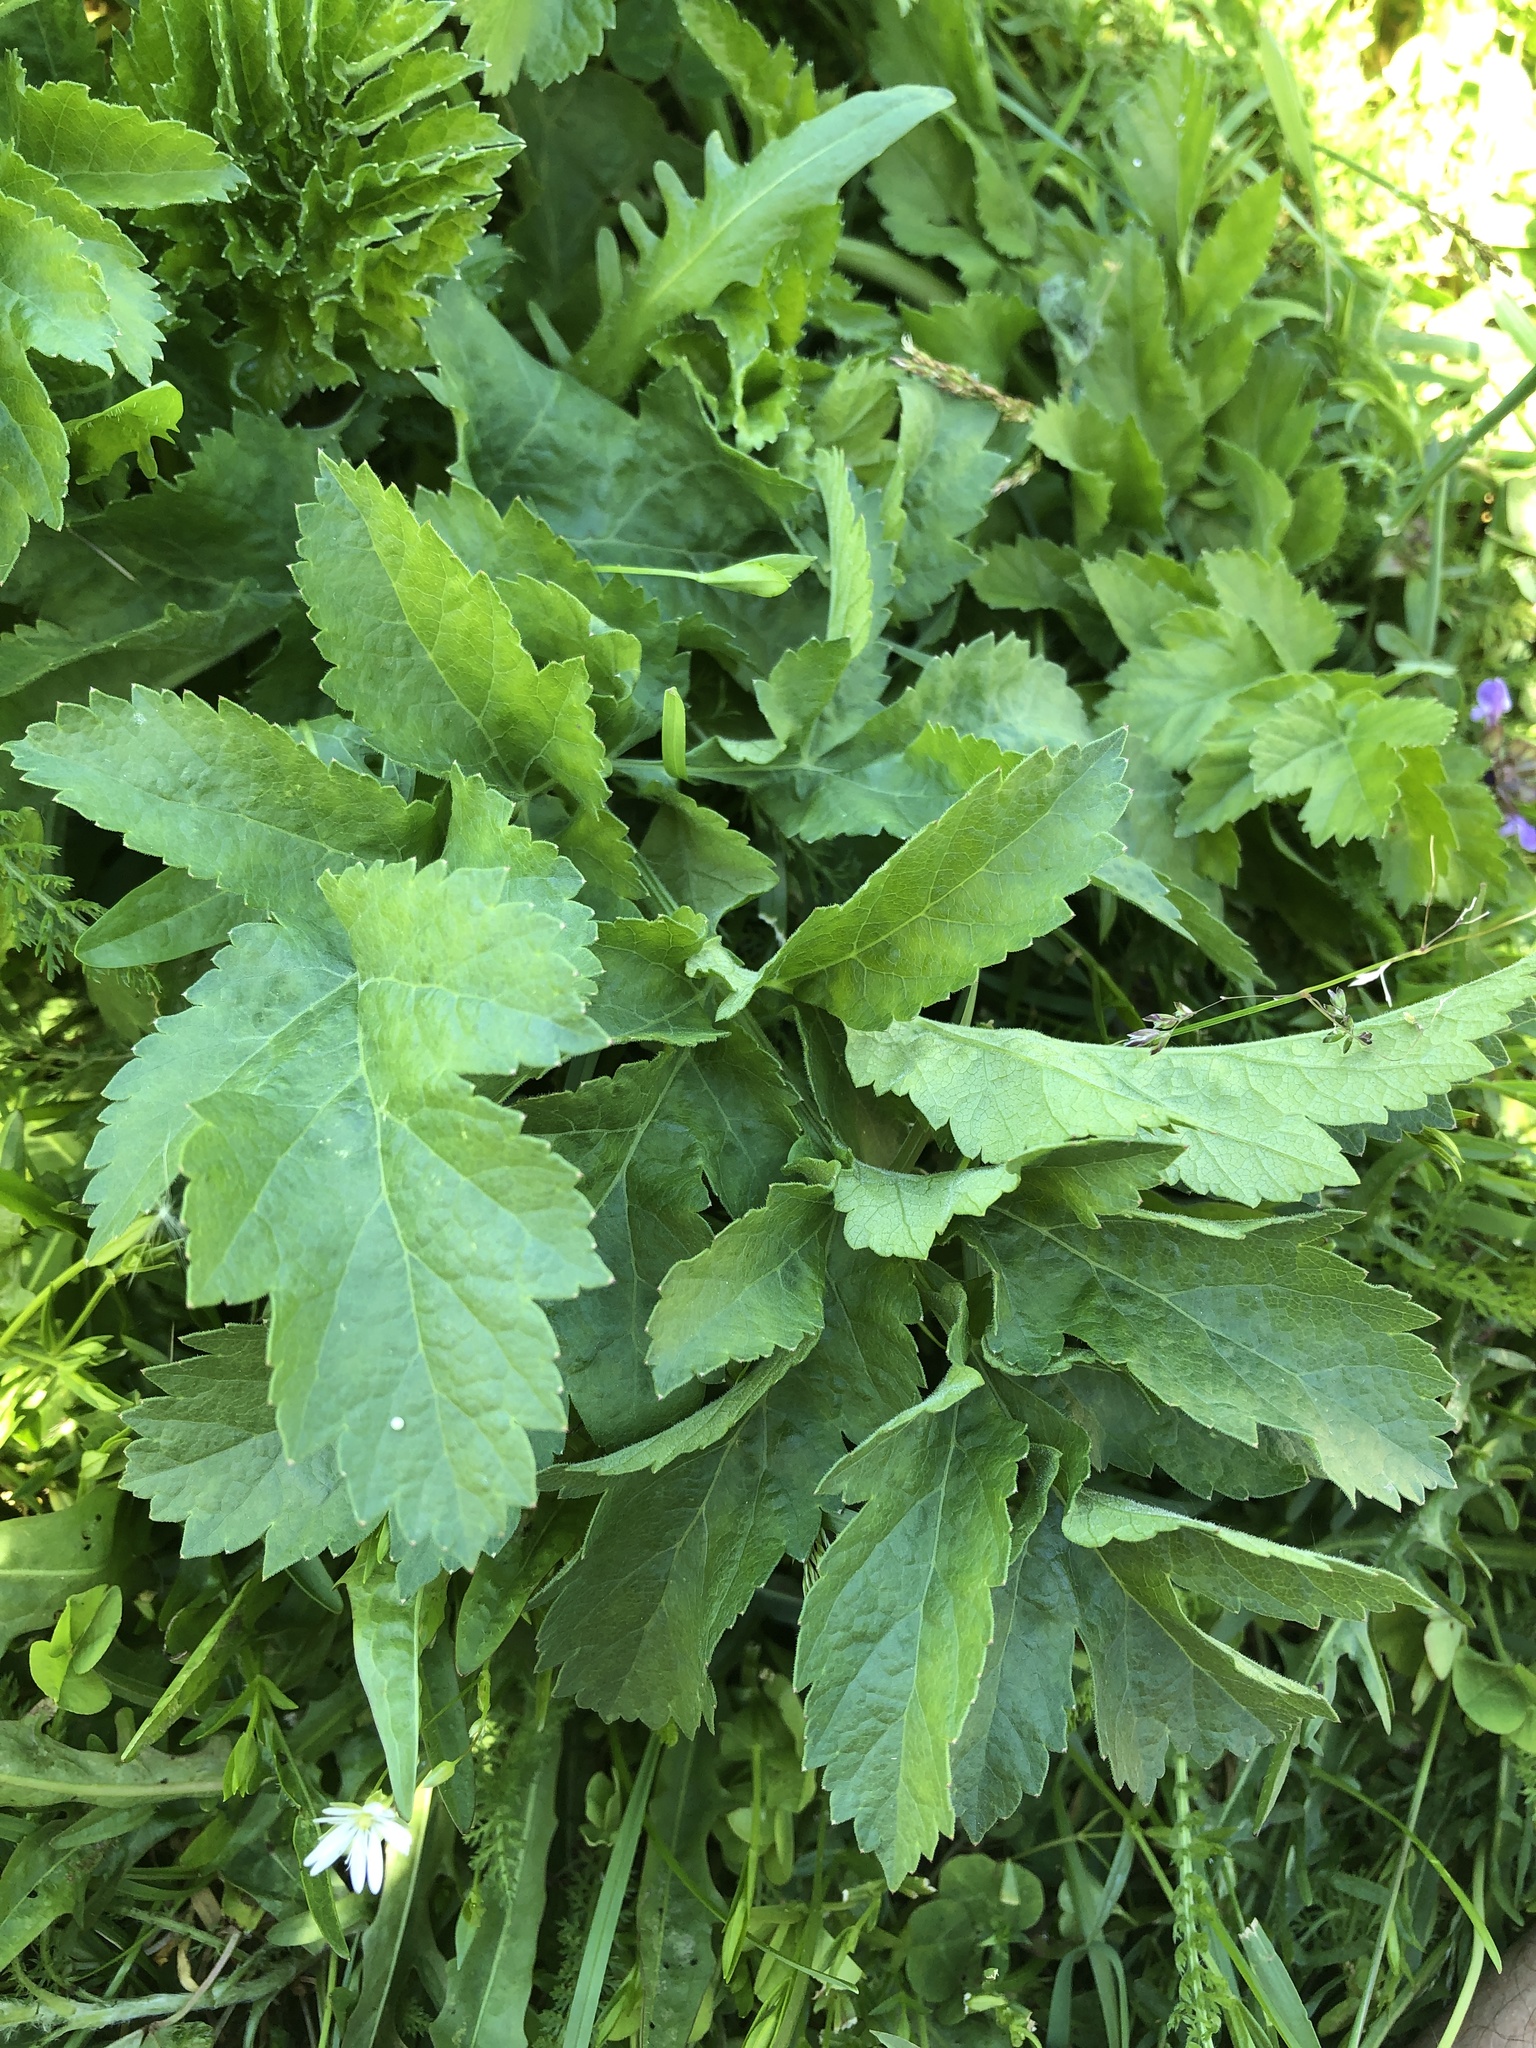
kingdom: Plantae
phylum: Tracheophyta
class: Magnoliopsida
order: Apiales
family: Apiaceae
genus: Pastinaca
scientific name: Pastinaca sativa
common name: Wild parsnip
